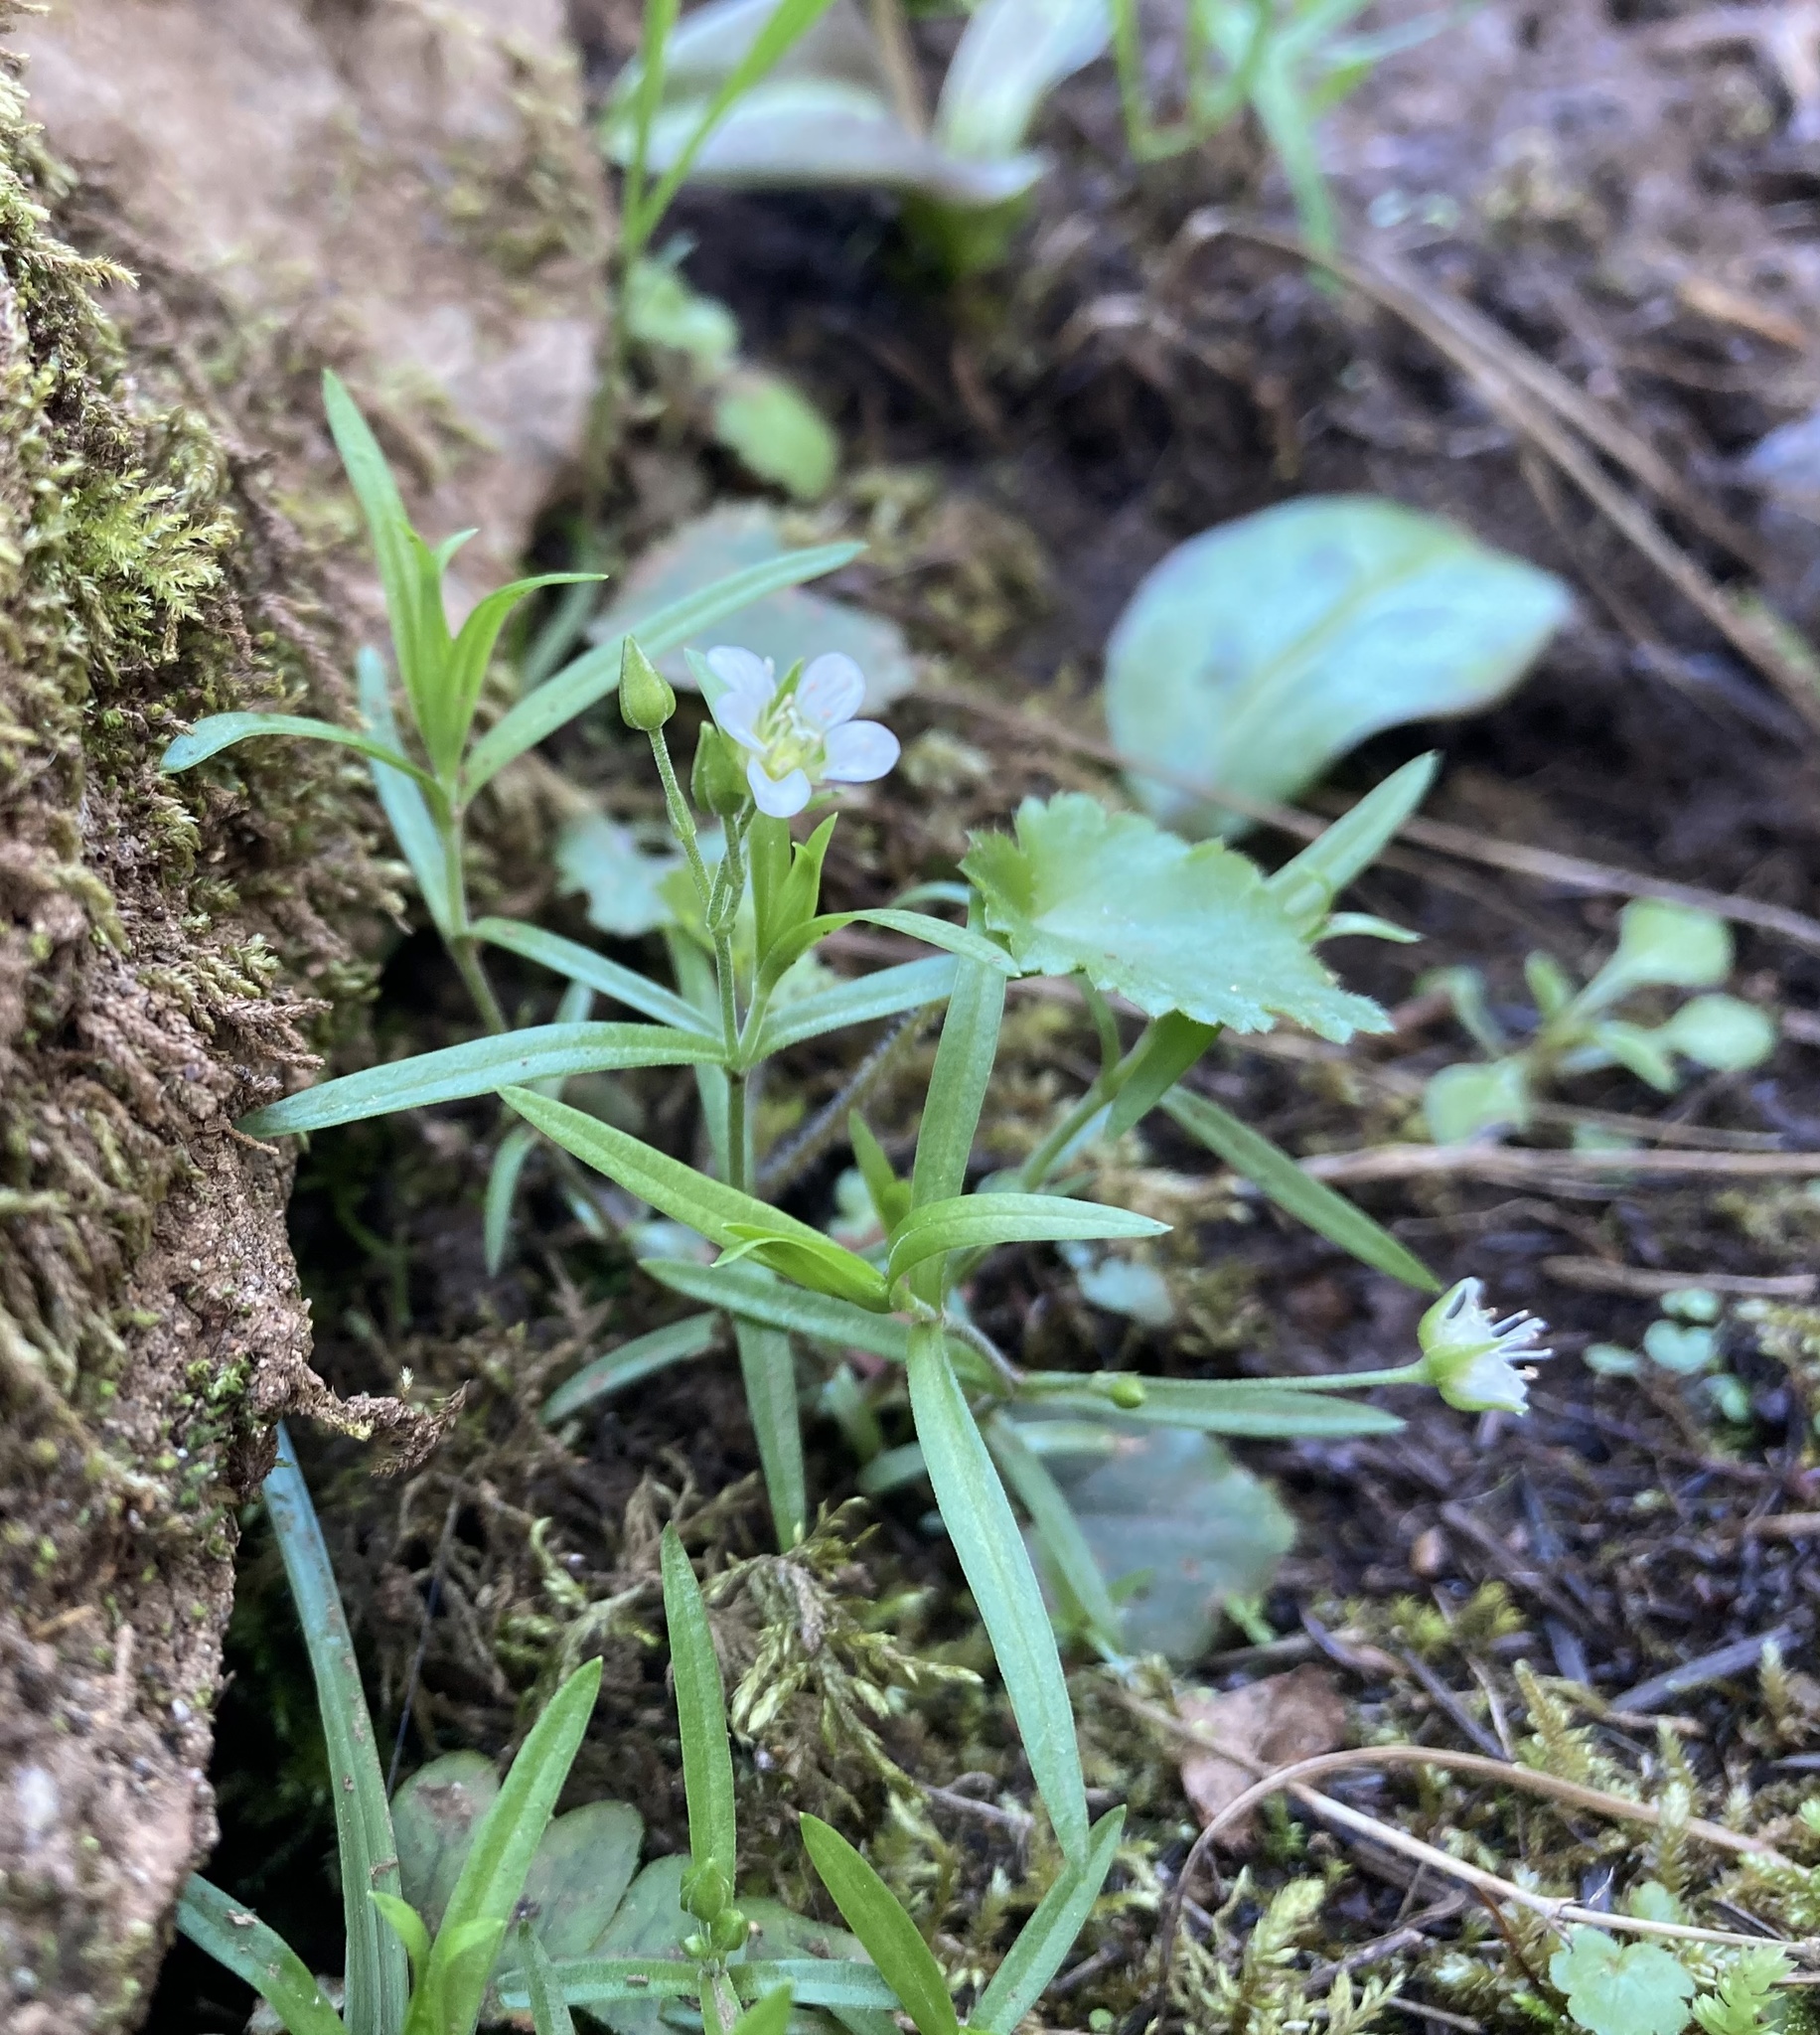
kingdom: Plantae
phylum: Tracheophyta
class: Magnoliopsida
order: Caryophyllales
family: Caryophyllaceae
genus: Moehringia
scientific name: Moehringia macrophylla
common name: Big-leaf sandwort
